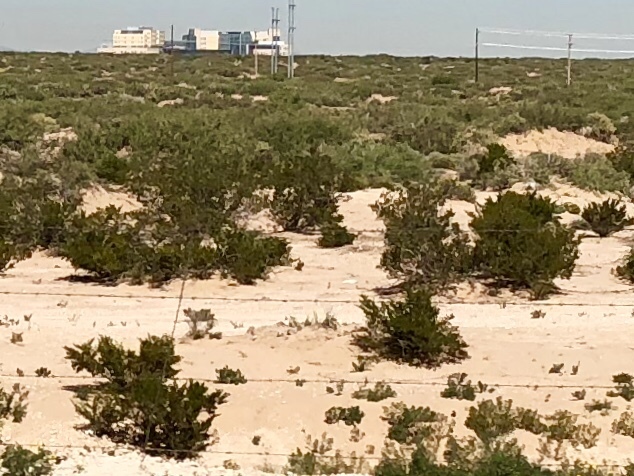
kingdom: Plantae
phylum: Tracheophyta
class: Magnoliopsida
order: Zygophyllales
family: Zygophyllaceae
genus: Larrea
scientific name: Larrea tridentata
